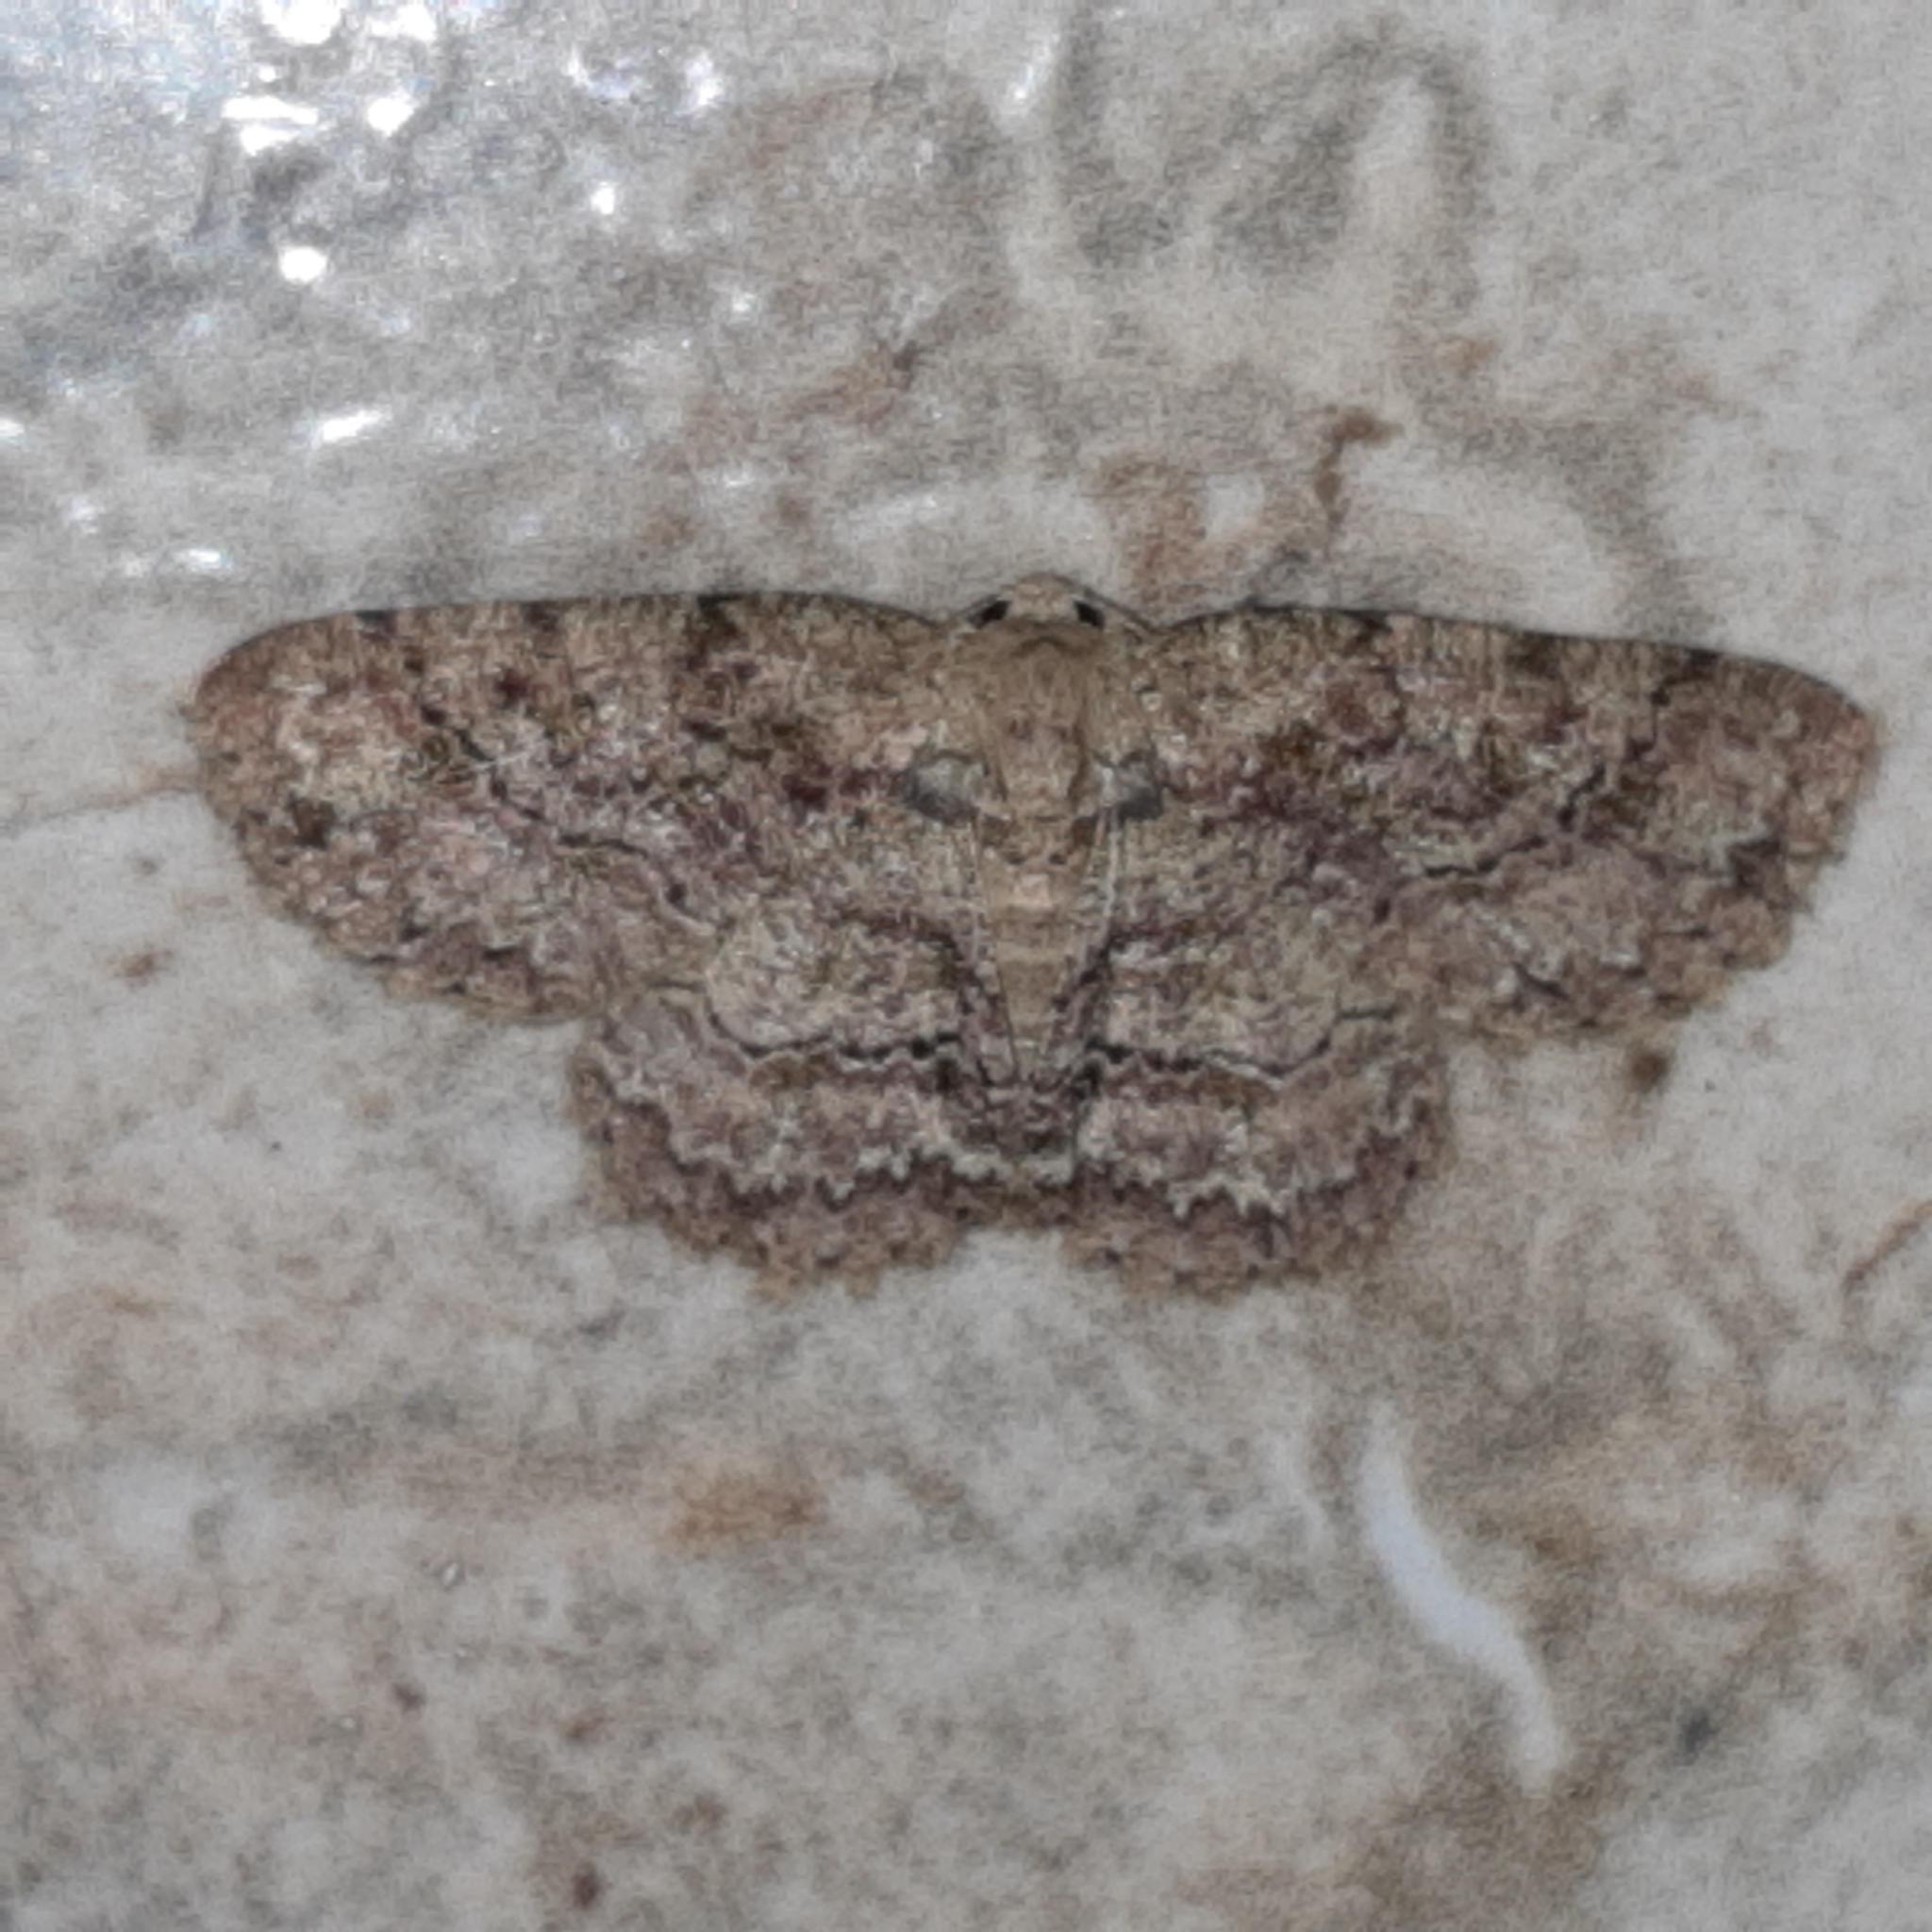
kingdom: Animalia
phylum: Arthropoda
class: Insecta
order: Lepidoptera
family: Geometridae
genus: Bryoptera
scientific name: Bryoptera subbrunnea
